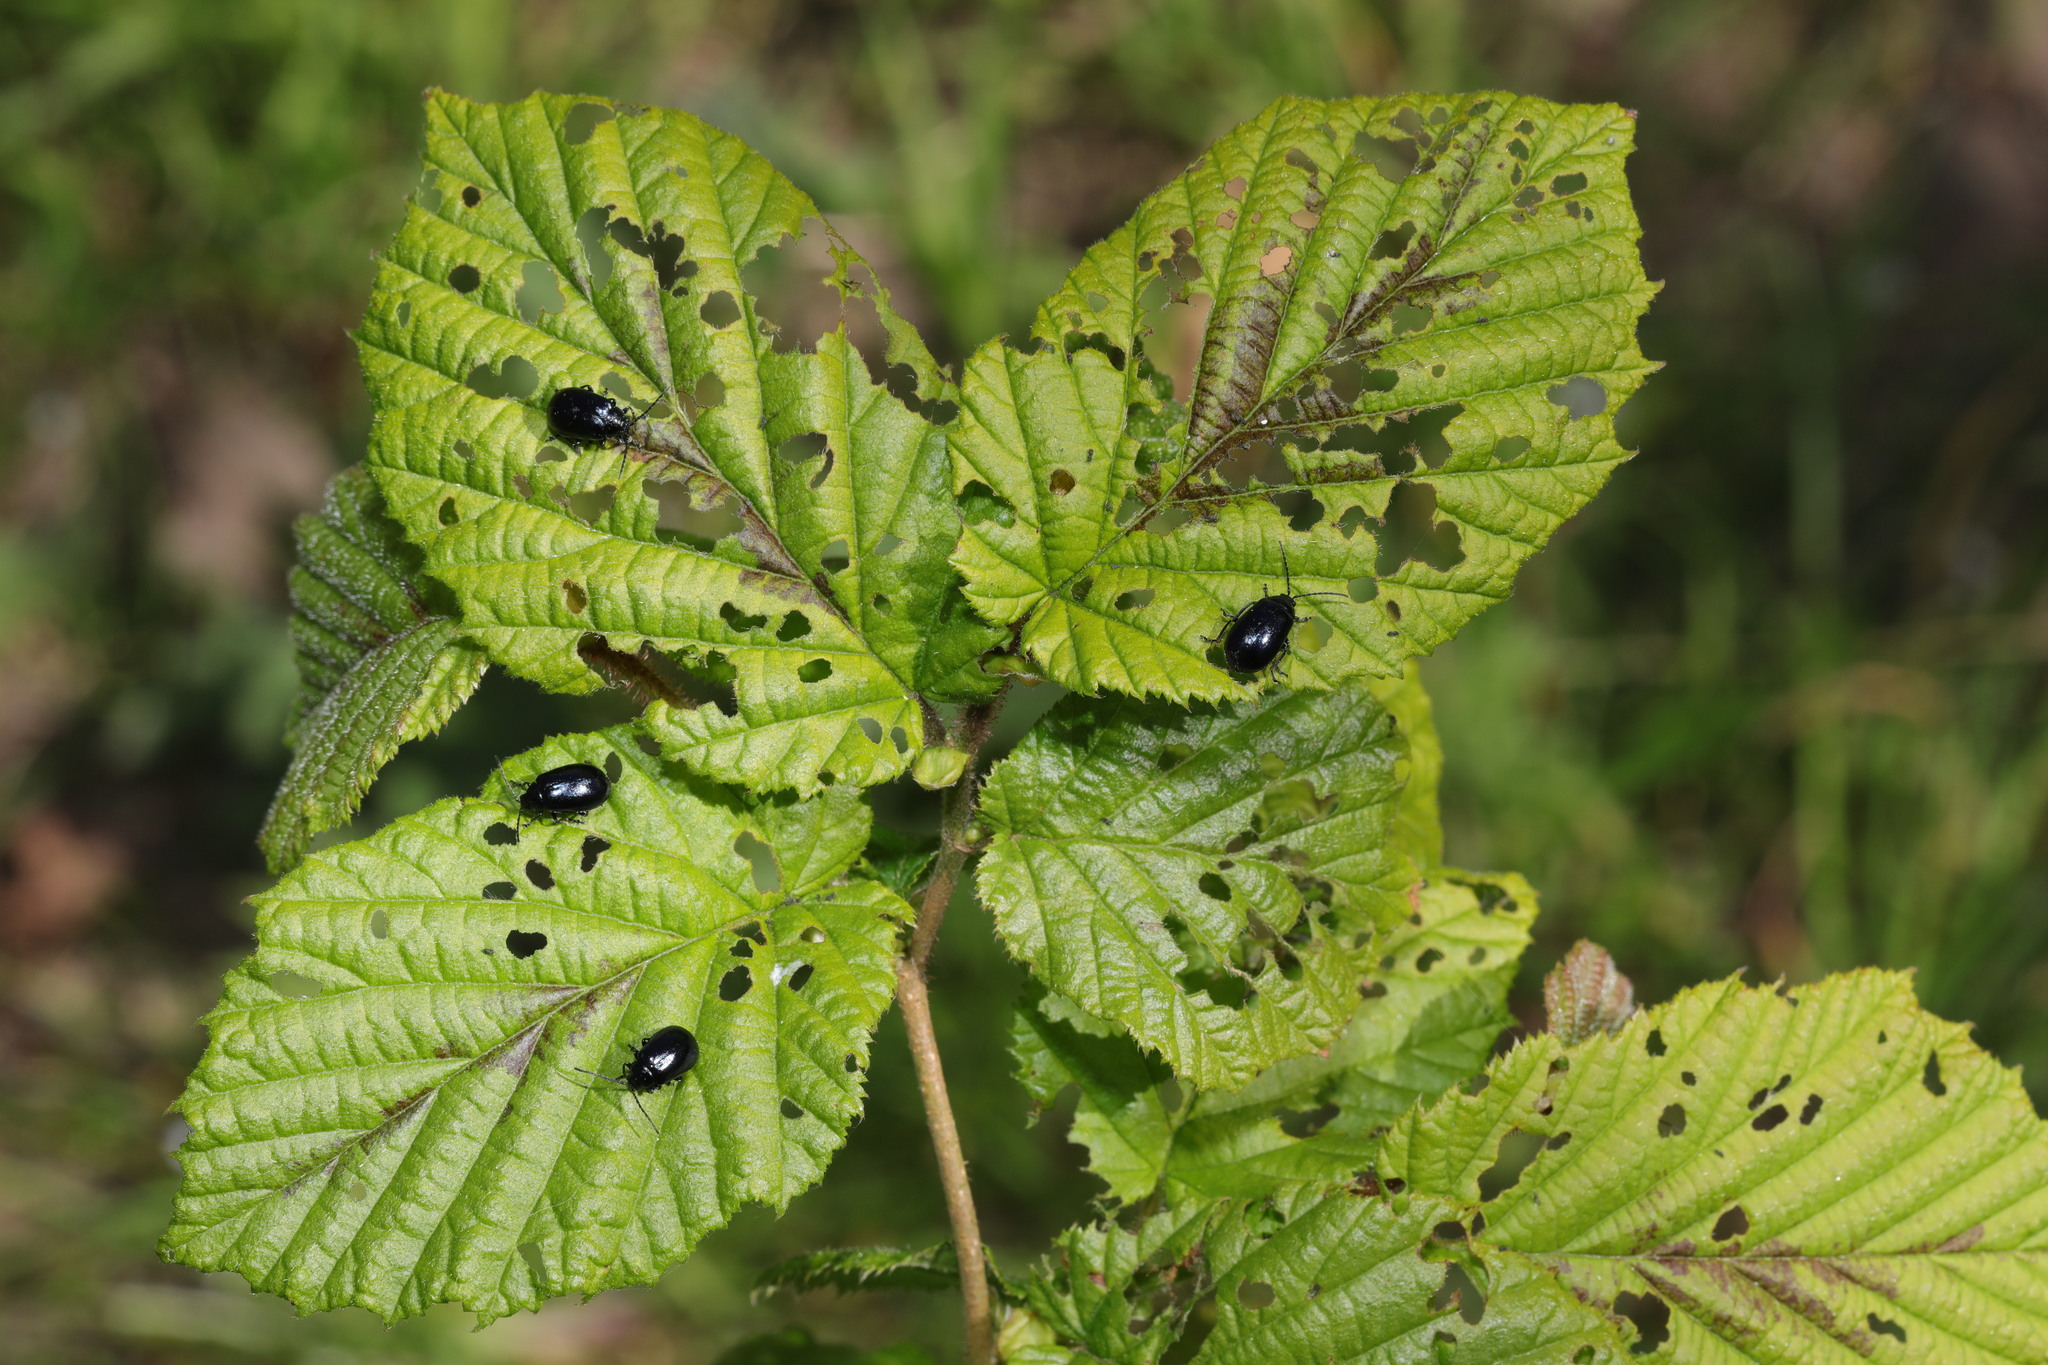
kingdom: Plantae
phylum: Tracheophyta
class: Magnoliopsida
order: Fagales
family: Betulaceae
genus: Alnus
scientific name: Alnus glutinosa
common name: Black alder
